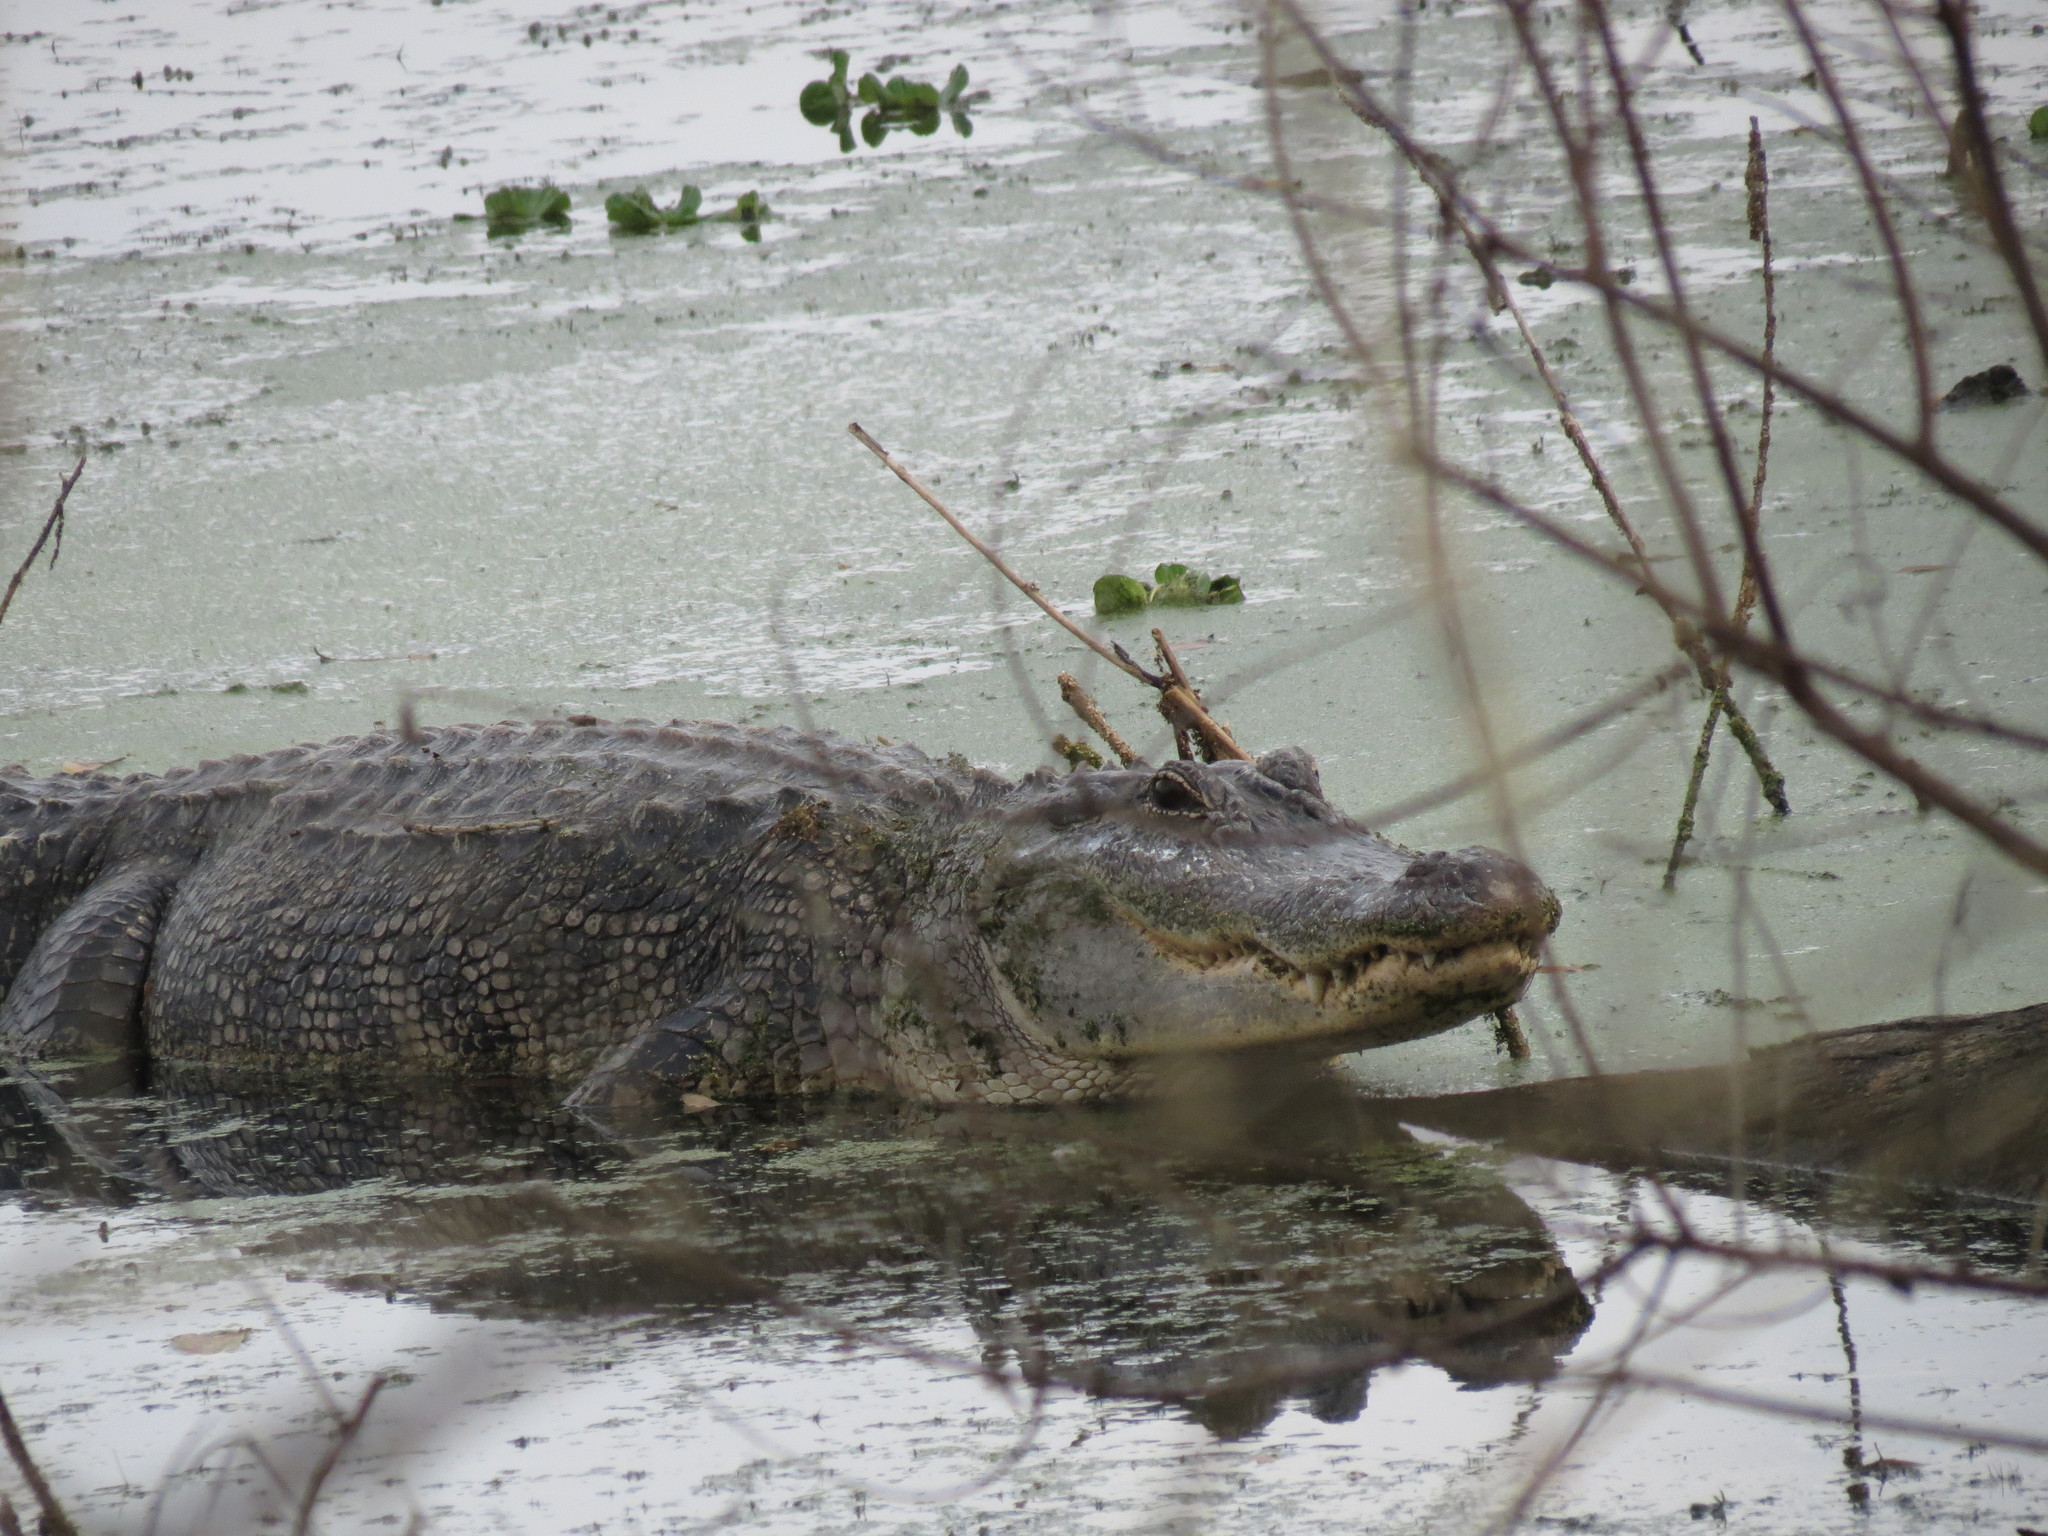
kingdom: Animalia
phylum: Chordata
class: Crocodylia
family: Alligatoridae
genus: Alligator
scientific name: Alligator mississippiensis
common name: American alligator
